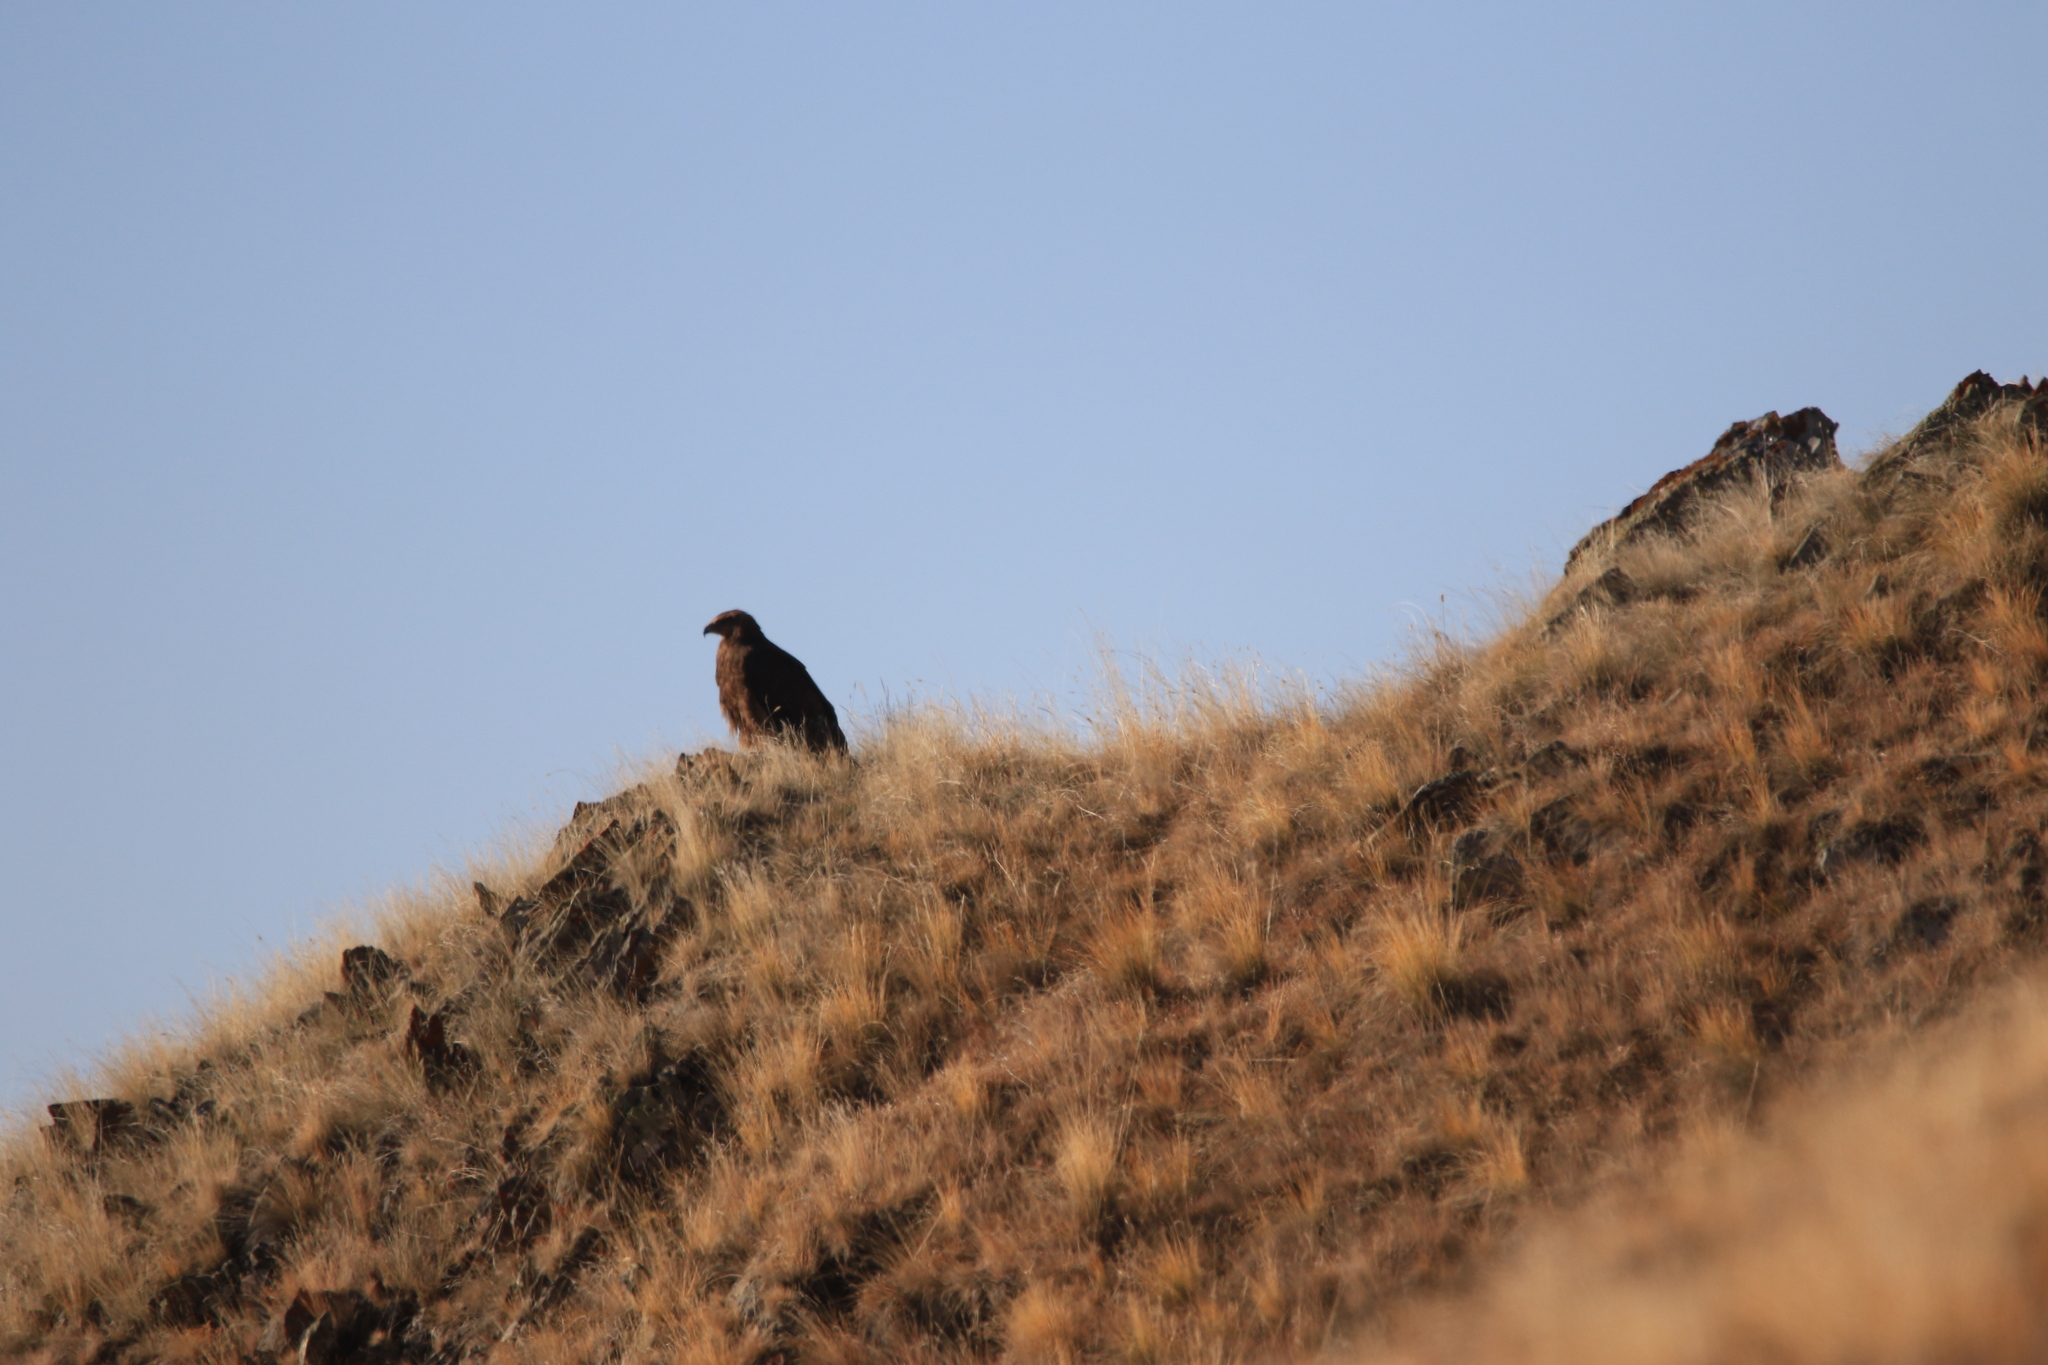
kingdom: Animalia
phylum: Chordata
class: Aves
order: Accipitriformes
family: Accipitridae
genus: Aquila
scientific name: Aquila nipalensis
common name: Steppe eagle
